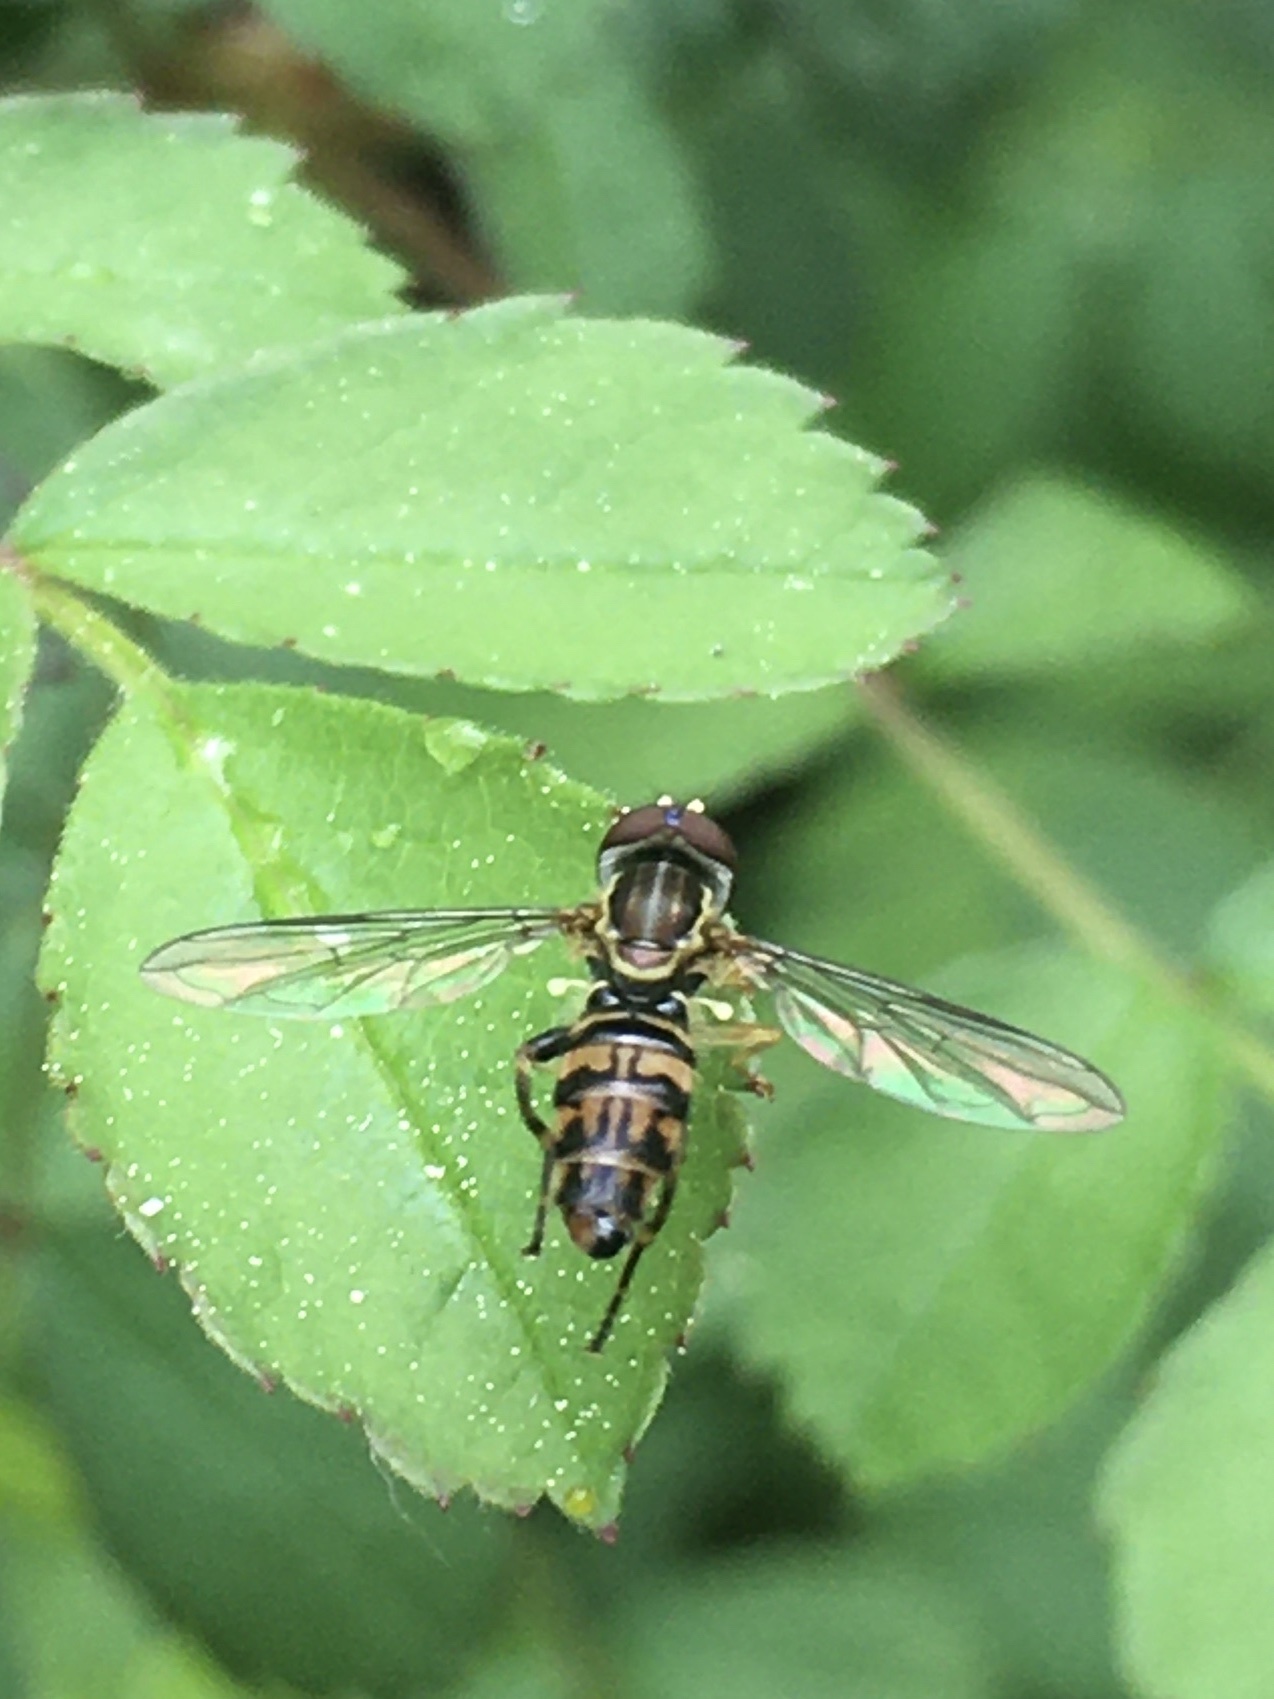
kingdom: Animalia
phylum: Arthropoda
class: Insecta
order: Diptera
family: Syrphidae
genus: Toxomerus
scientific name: Toxomerus geminatus
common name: Eastern calligrapher
